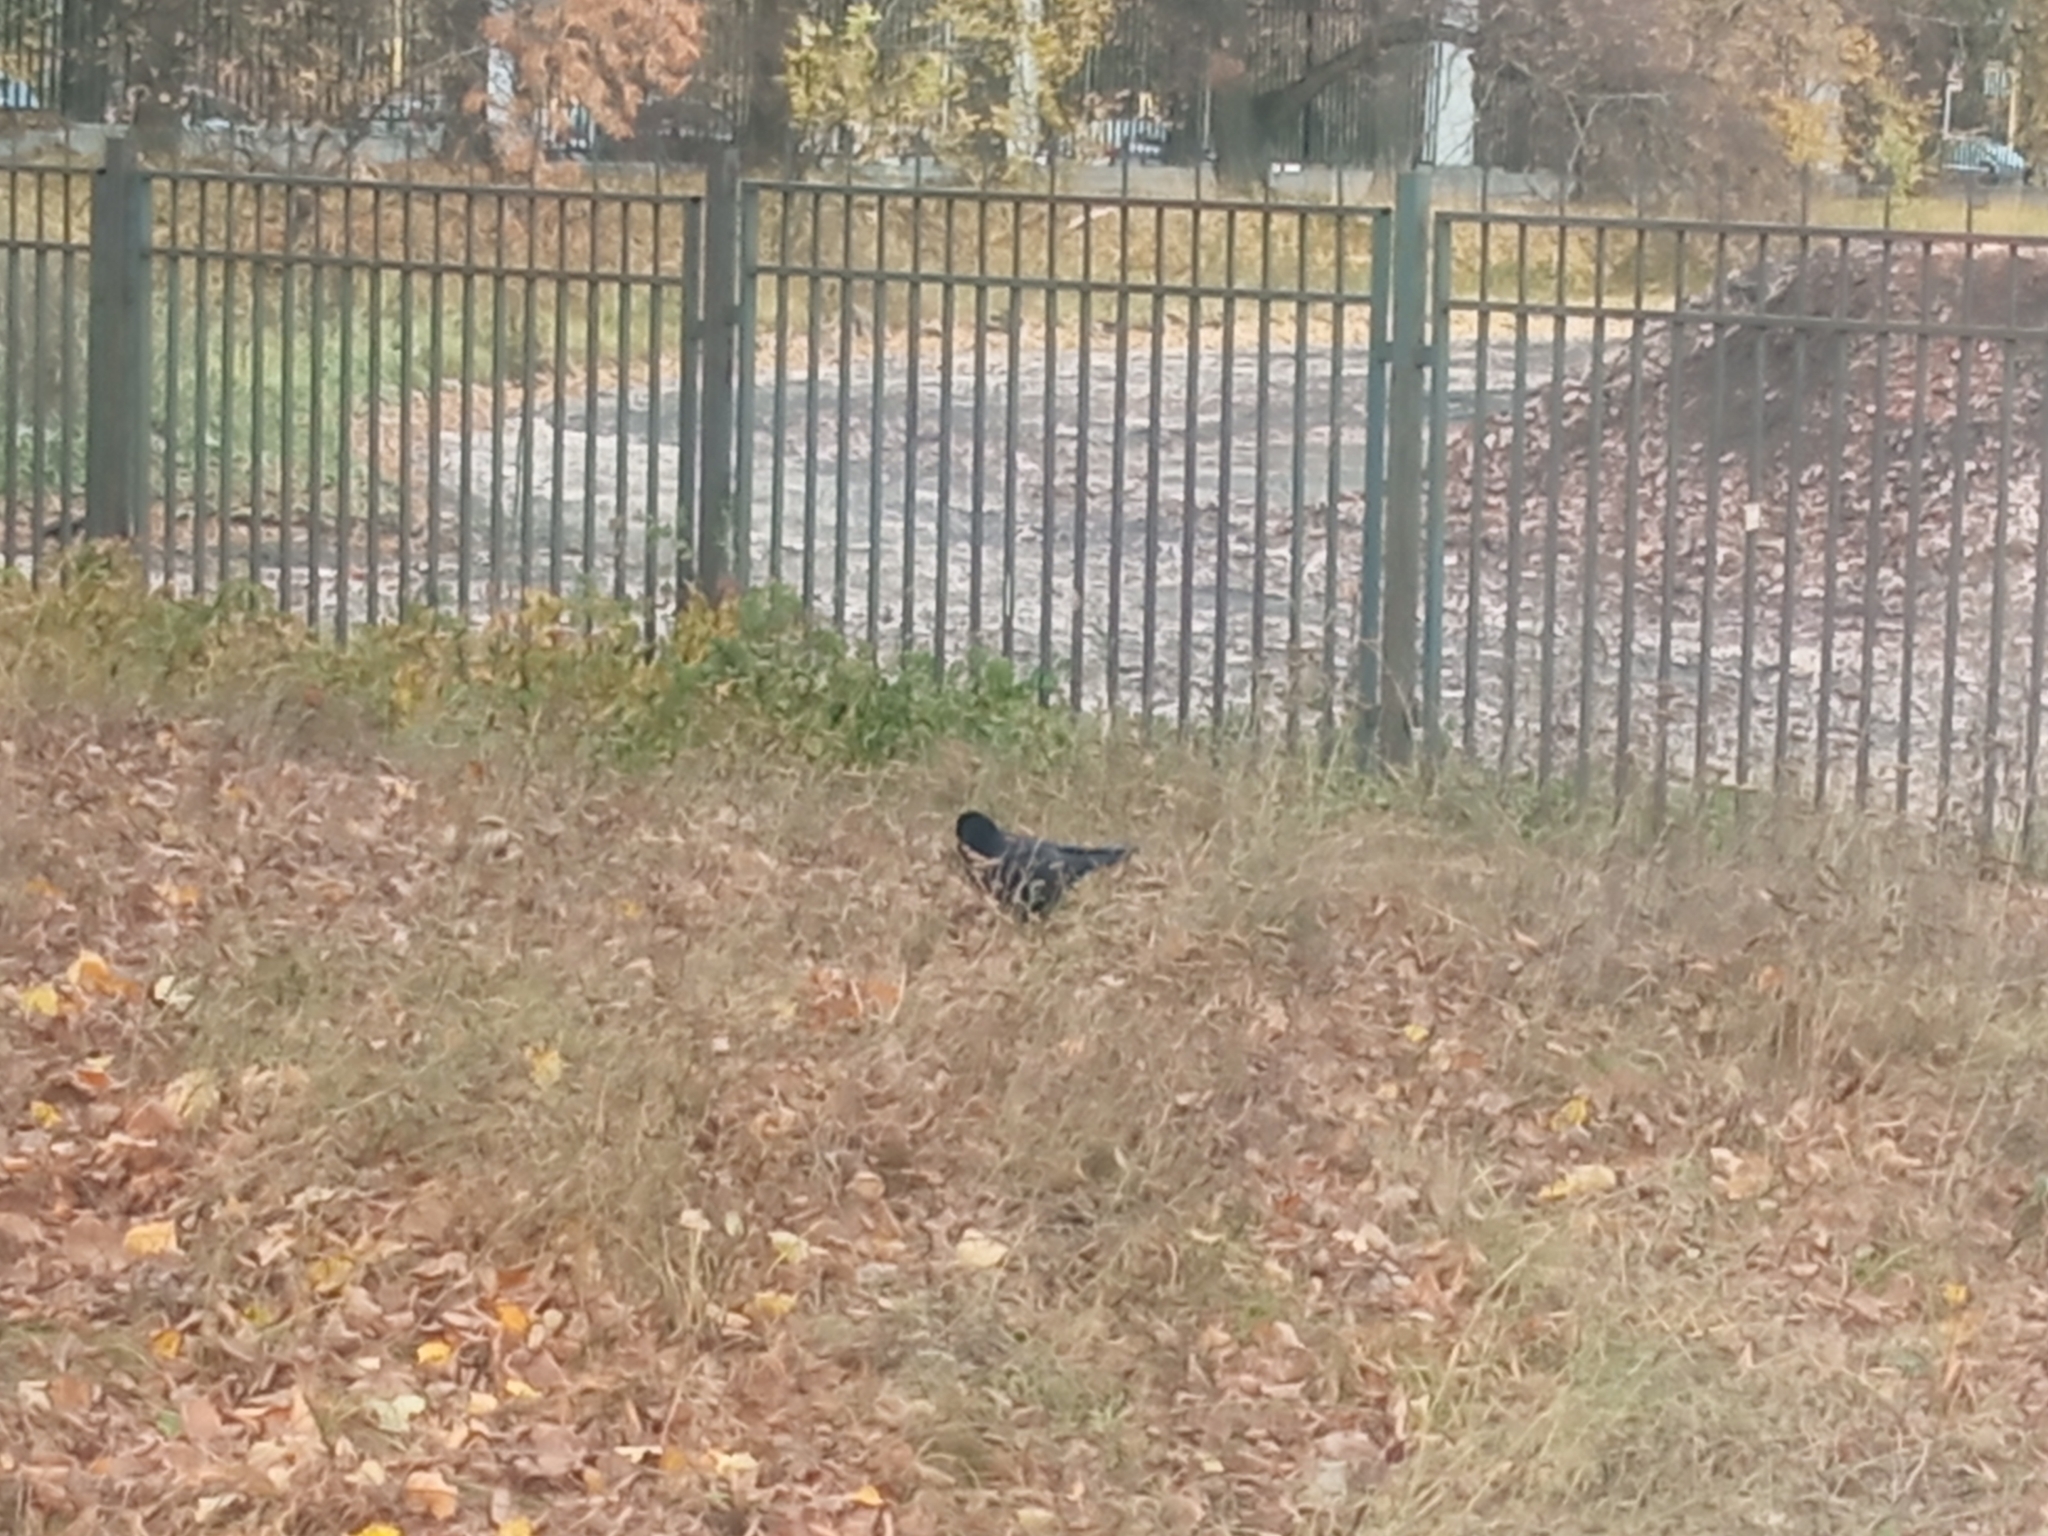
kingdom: Animalia
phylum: Chordata
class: Aves
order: Passeriformes
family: Corvidae
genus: Corvus
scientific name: Corvus frugilegus
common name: Rook
